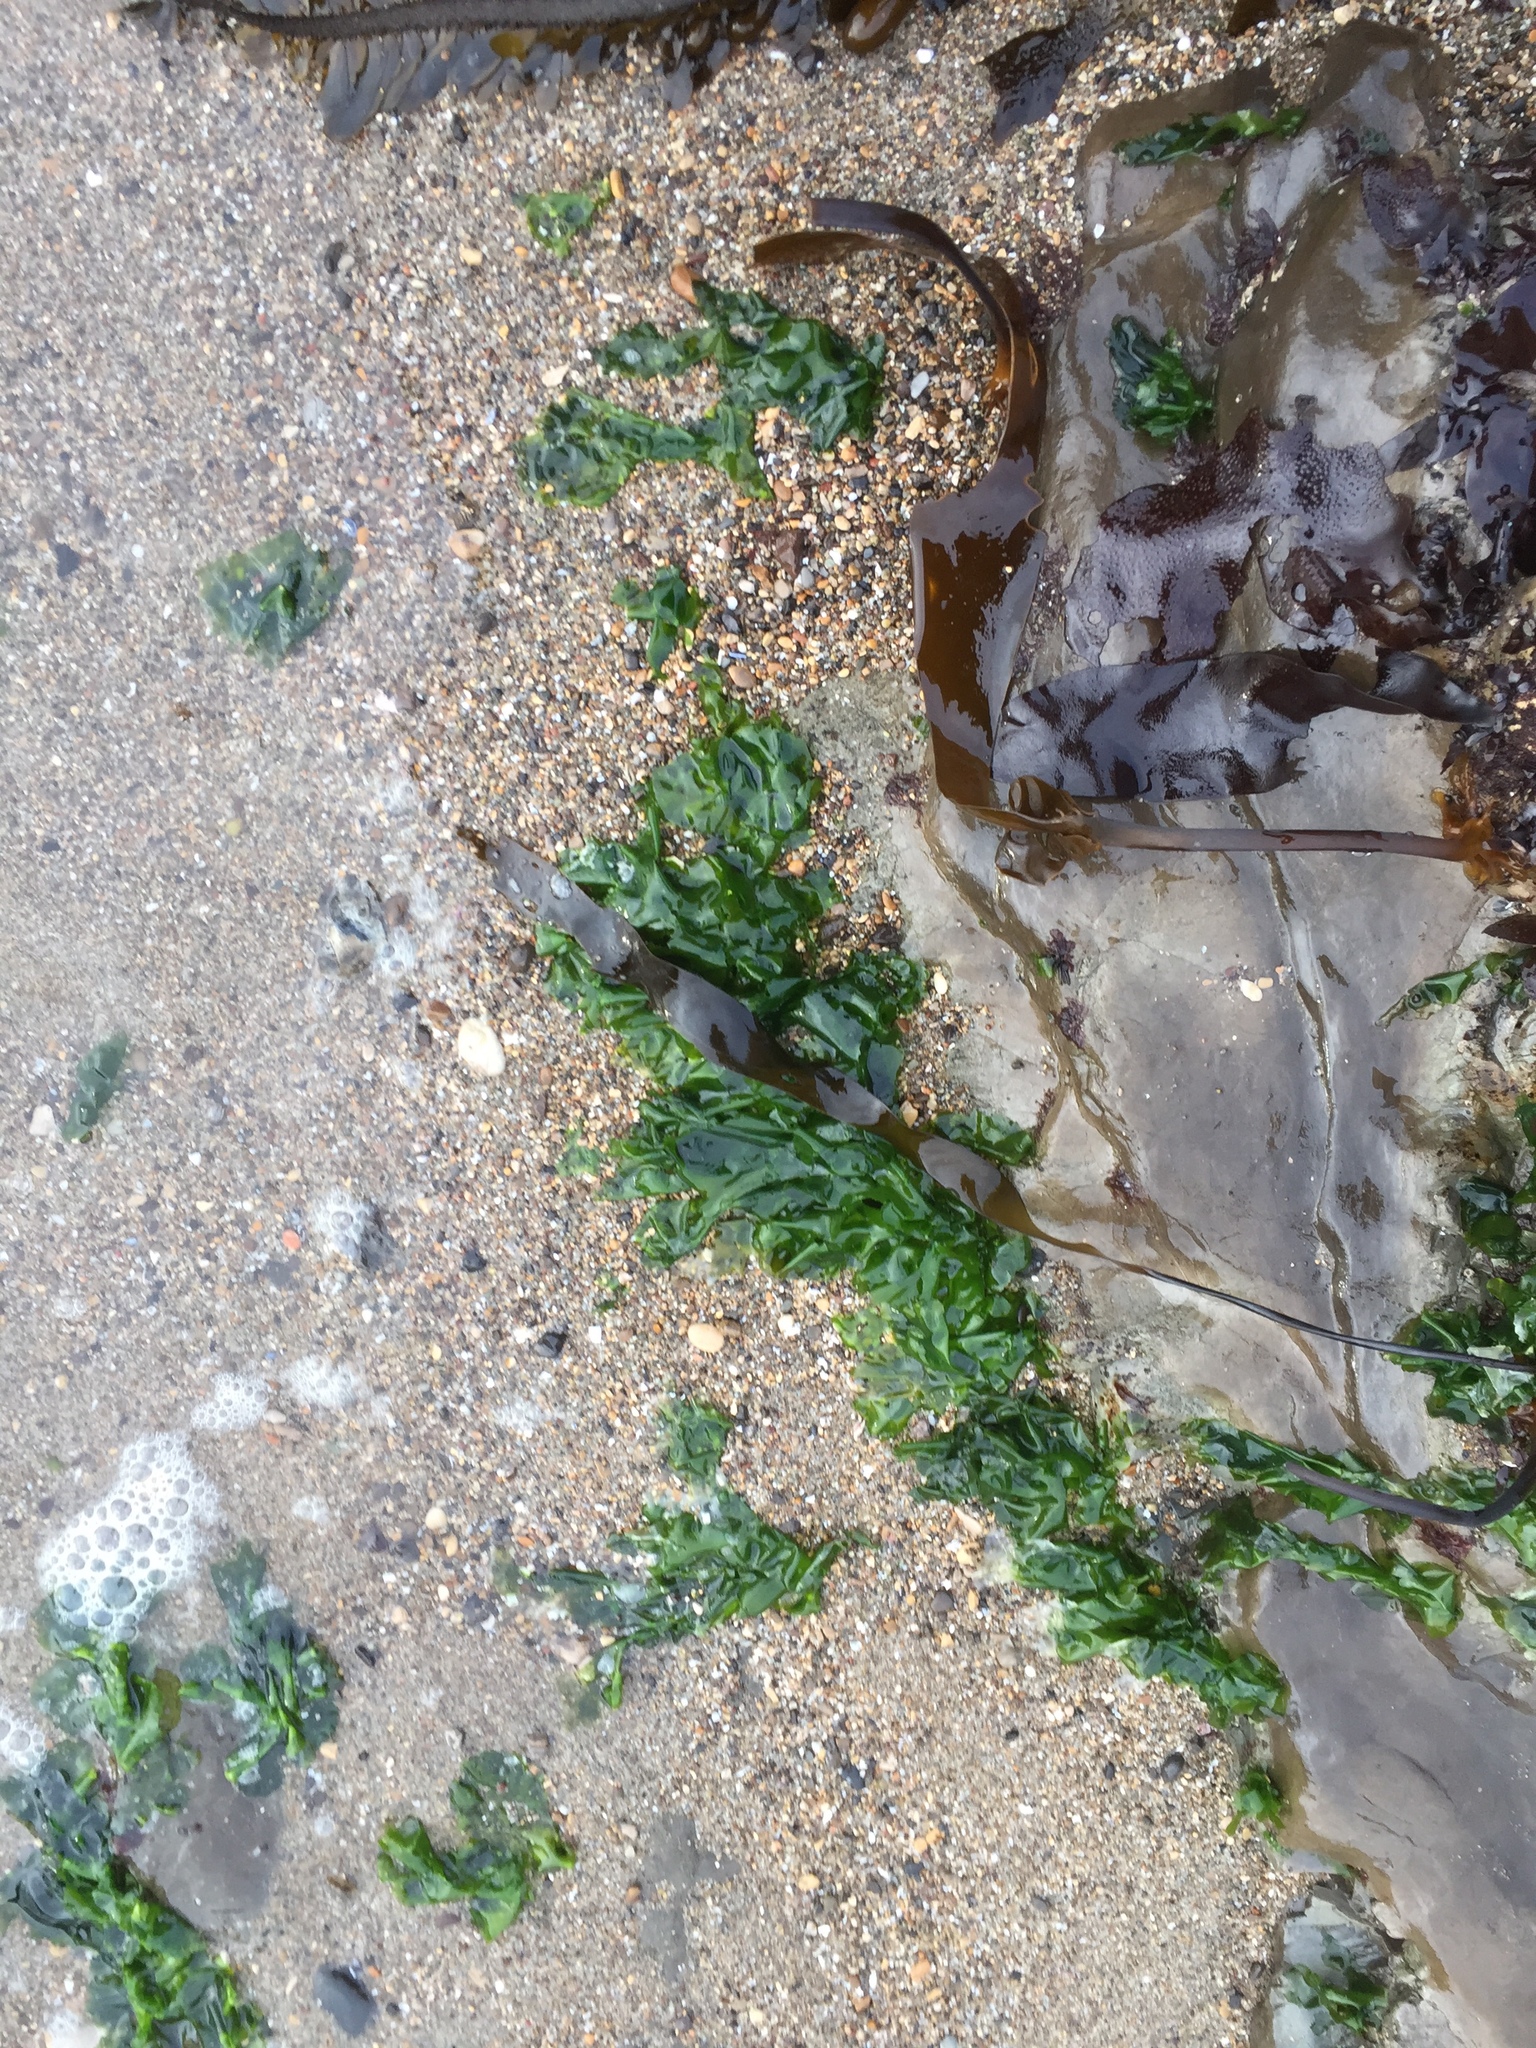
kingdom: Plantae
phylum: Chlorophyta
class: Ulvophyceae
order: Ulvales
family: Ulvaceae
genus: Ulva
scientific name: Ulva lactuca
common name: Sea lettuce
